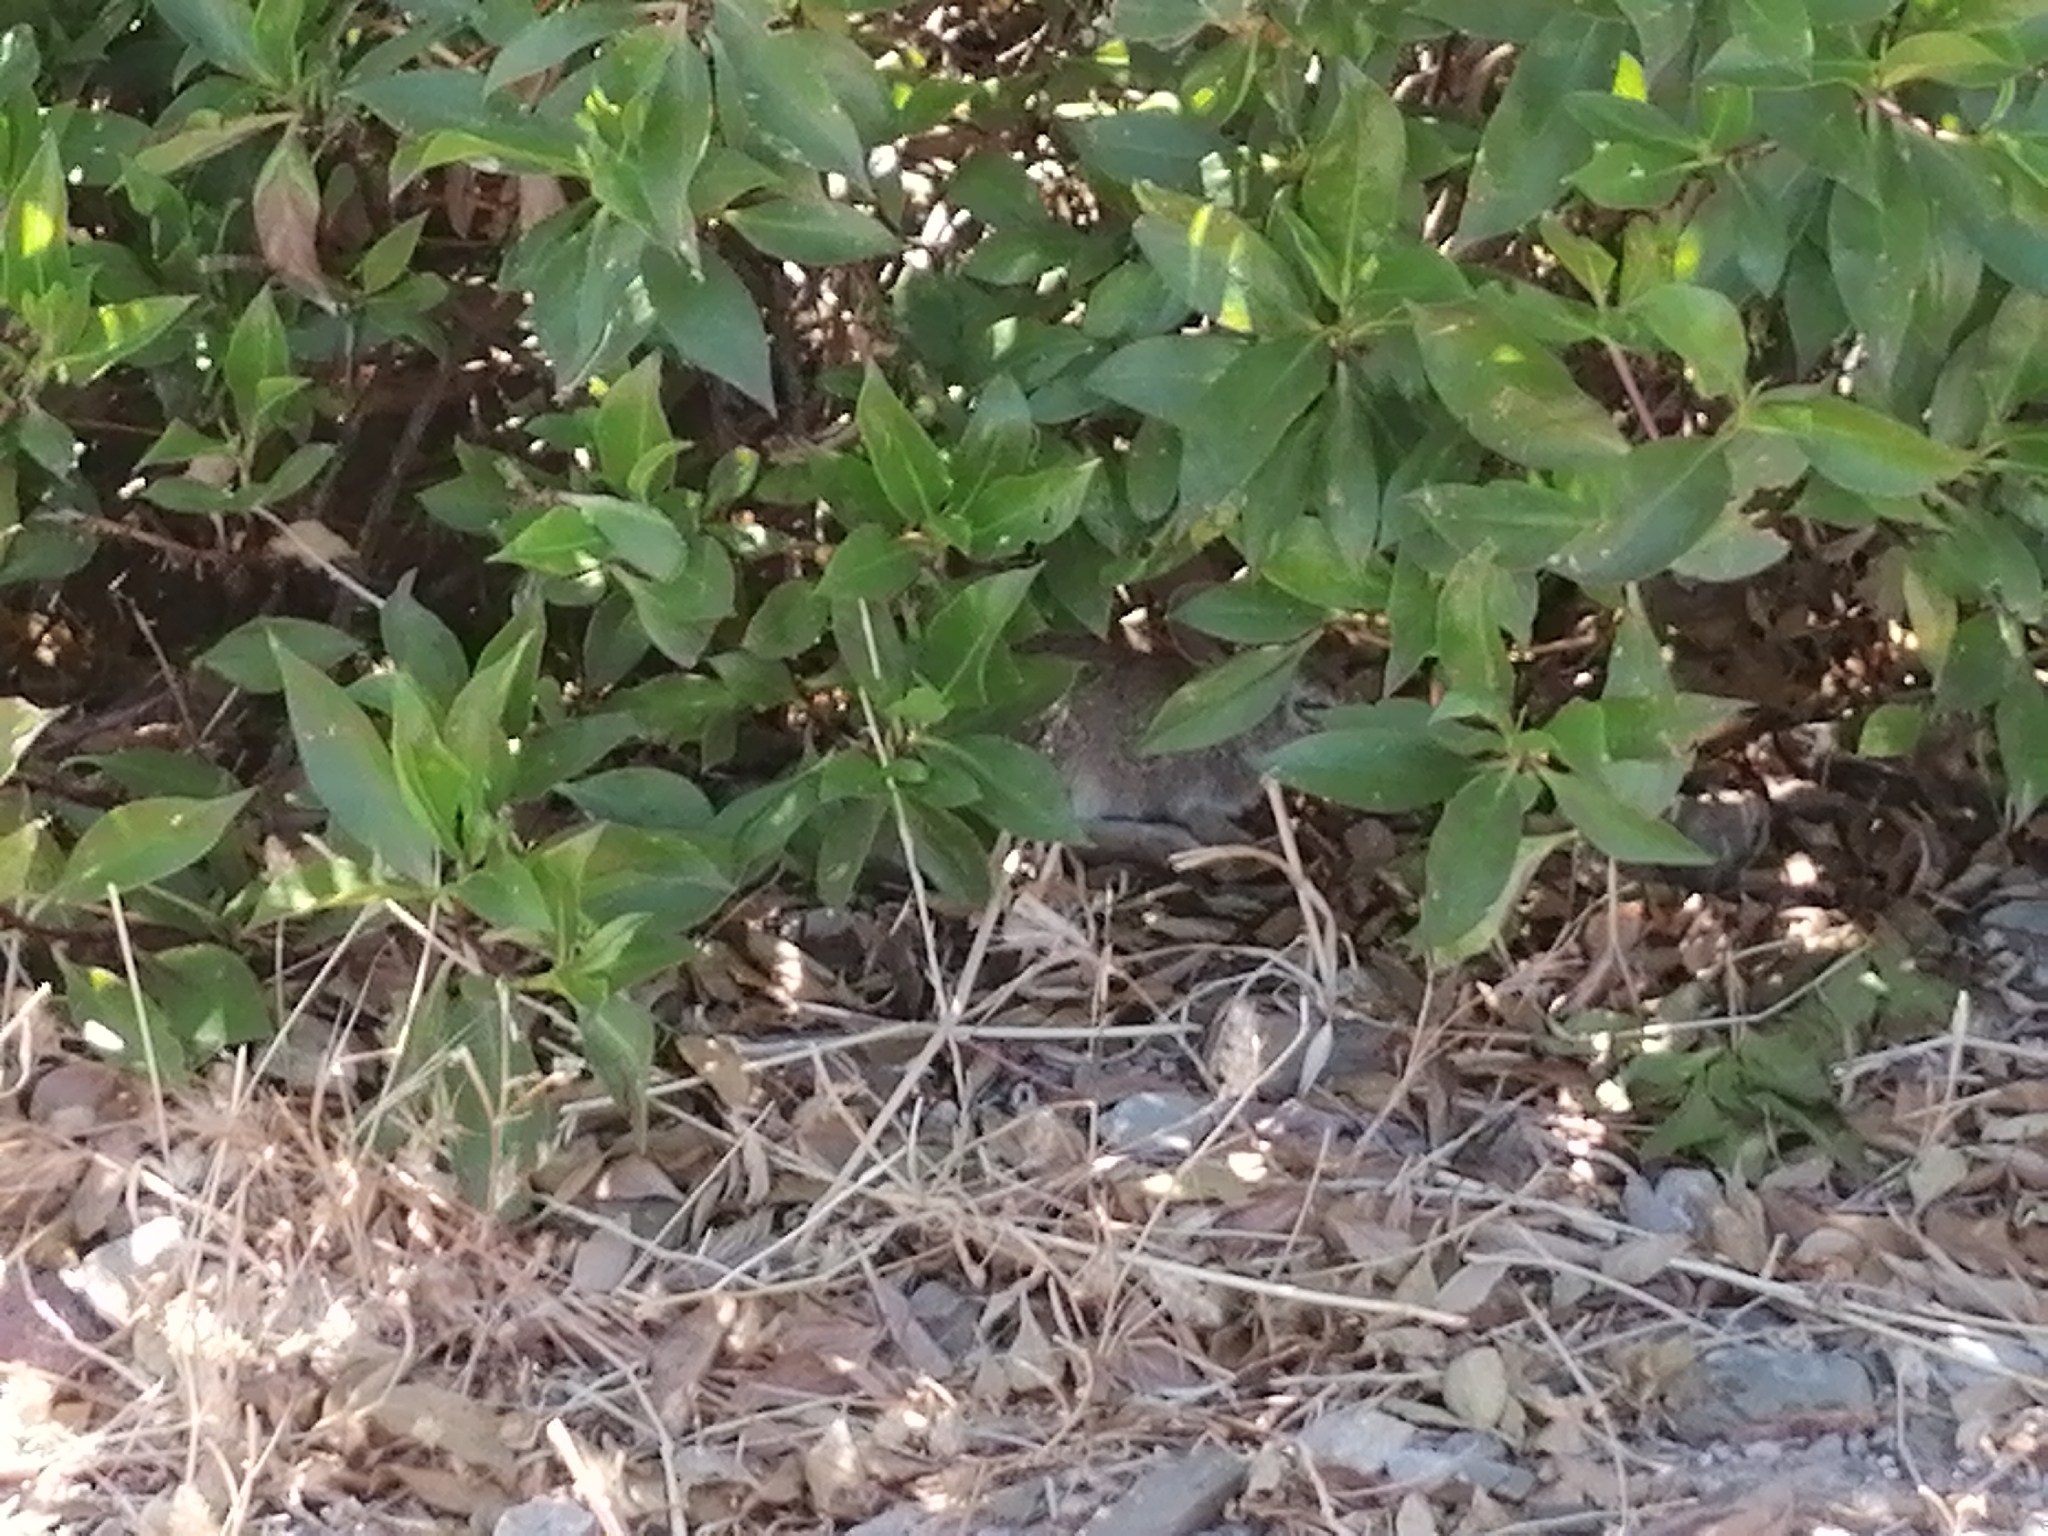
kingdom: Animalia
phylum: Chordata
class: Mammalia
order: Lagomorpha
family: Leporidae
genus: Oryctolagus
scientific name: Oryctolagus cuniculus
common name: European rabbit
